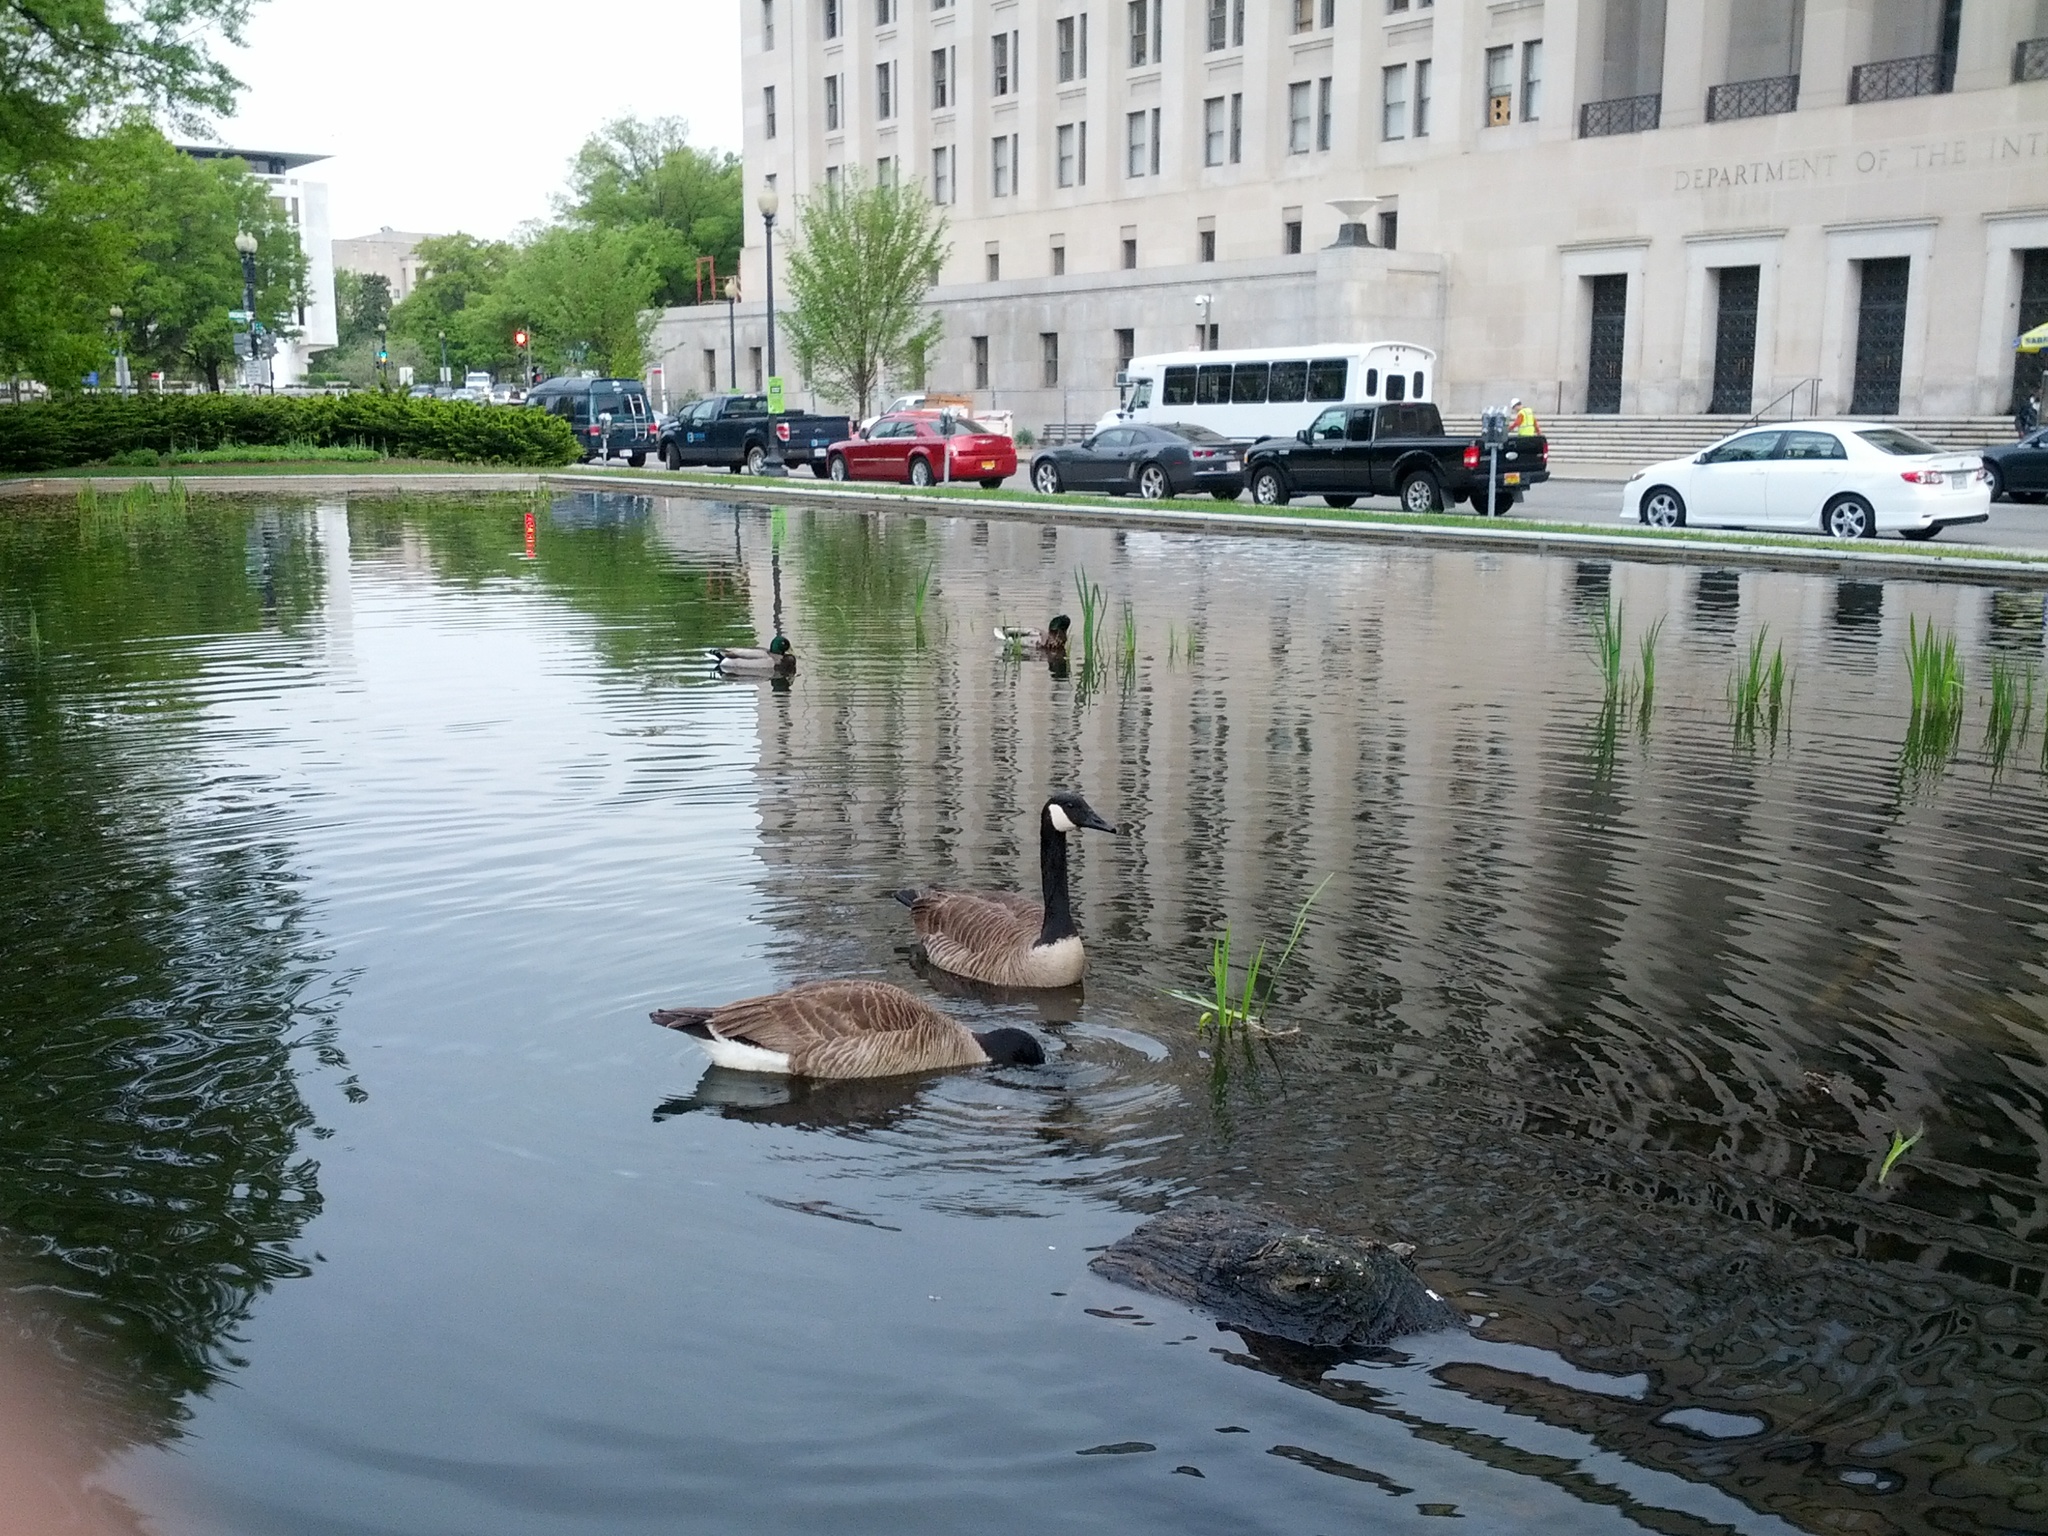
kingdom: Animalia
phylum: Chordata
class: Aves
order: Anseriformes
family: Anatidae
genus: Branta
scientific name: Branta canadensis
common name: Canada goose
